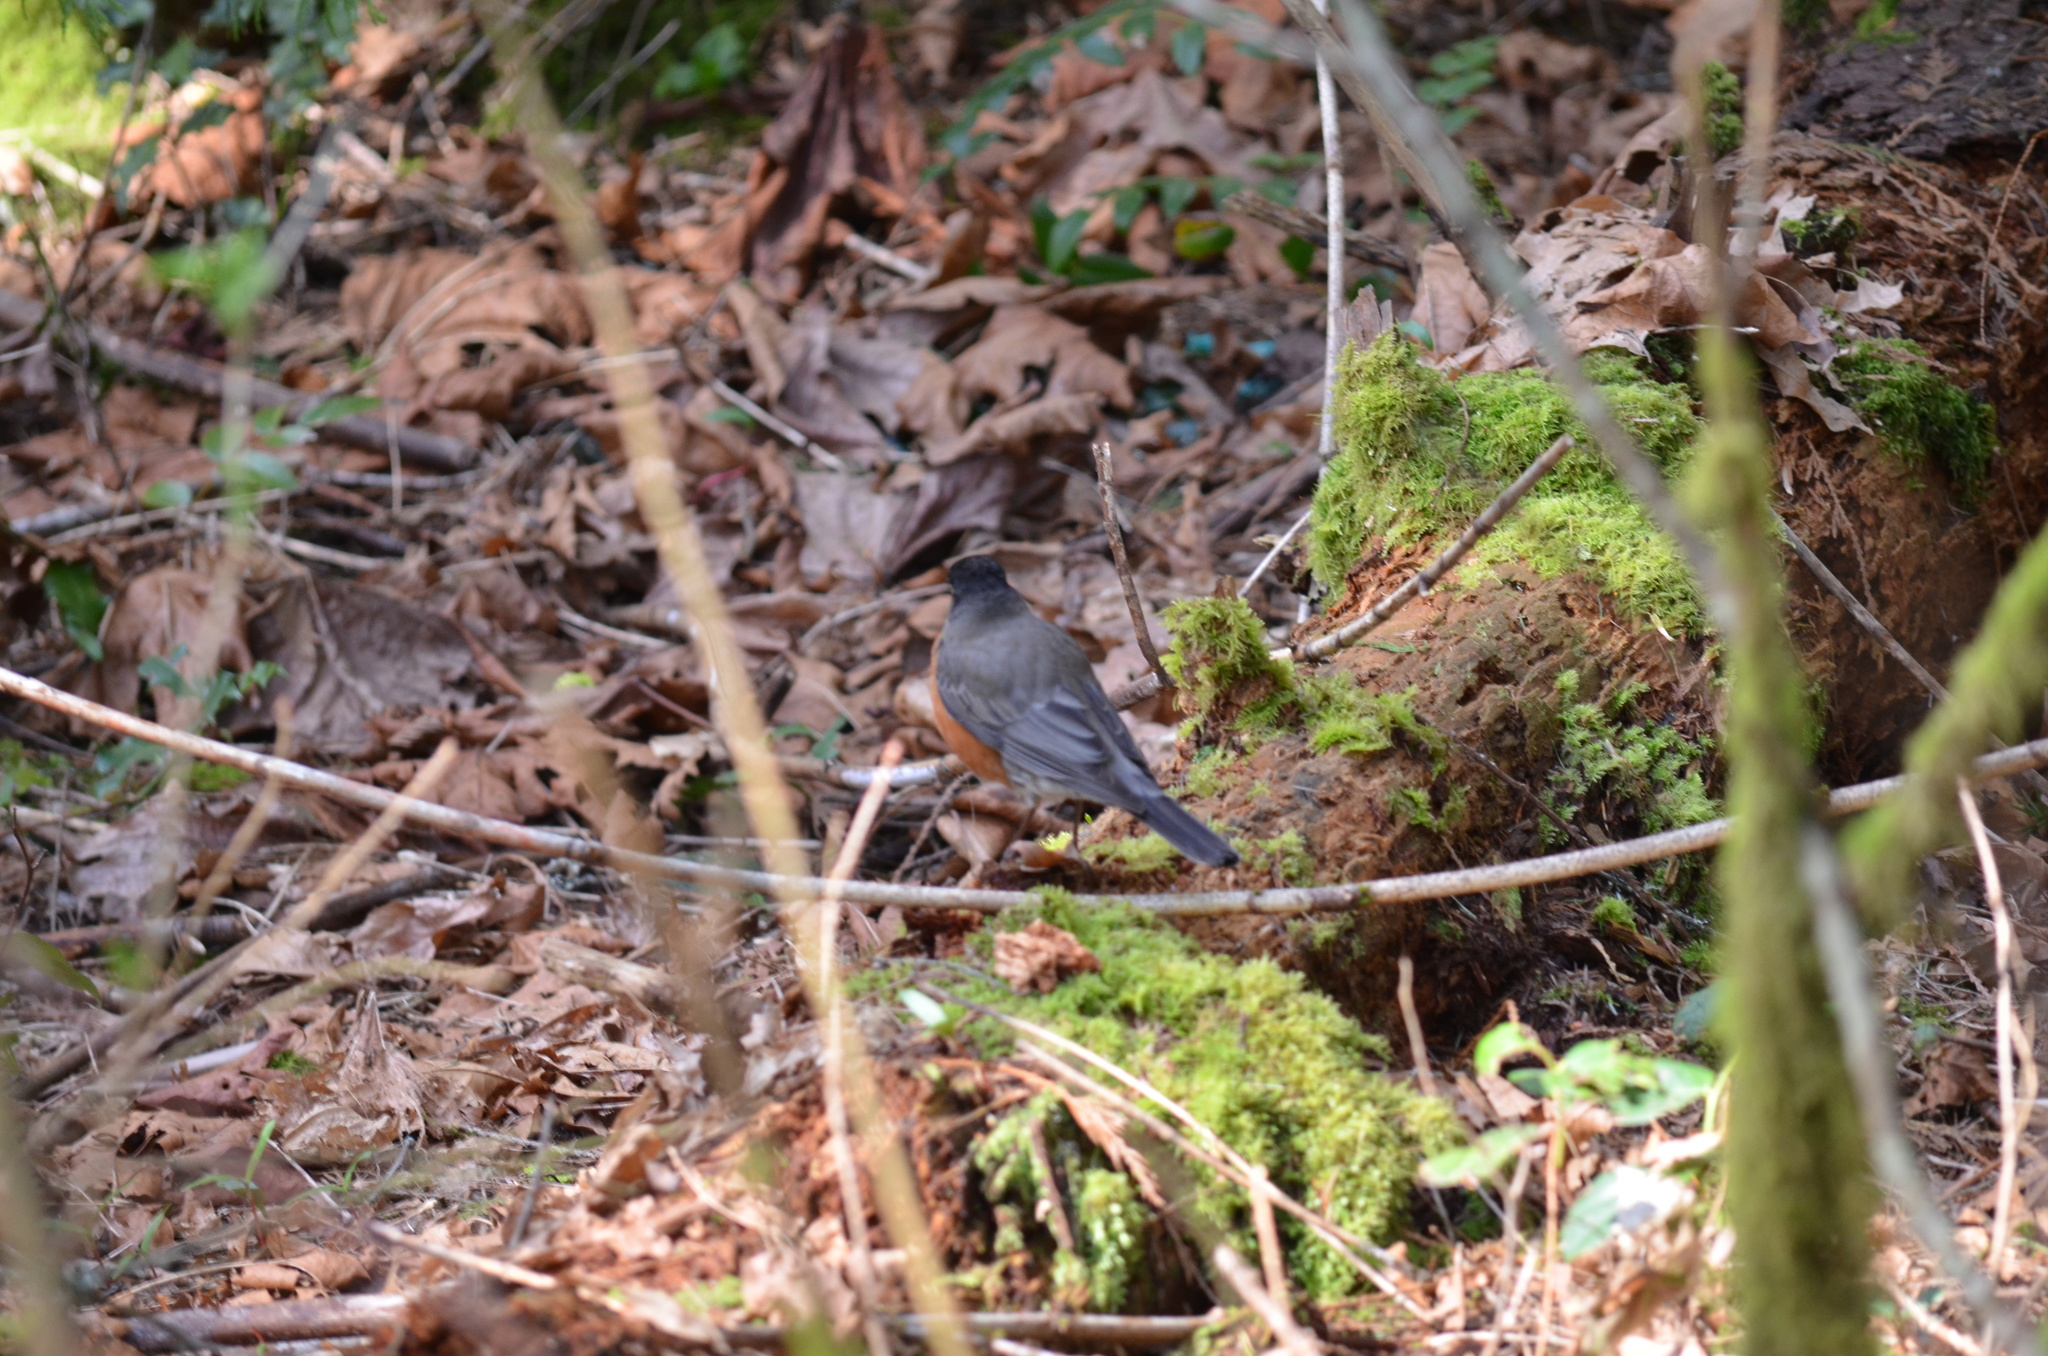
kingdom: Animalia
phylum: Chordata
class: Aves
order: Passeriformes
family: Turdidae
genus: Turdus
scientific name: Turdus migratorius
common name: American robin
